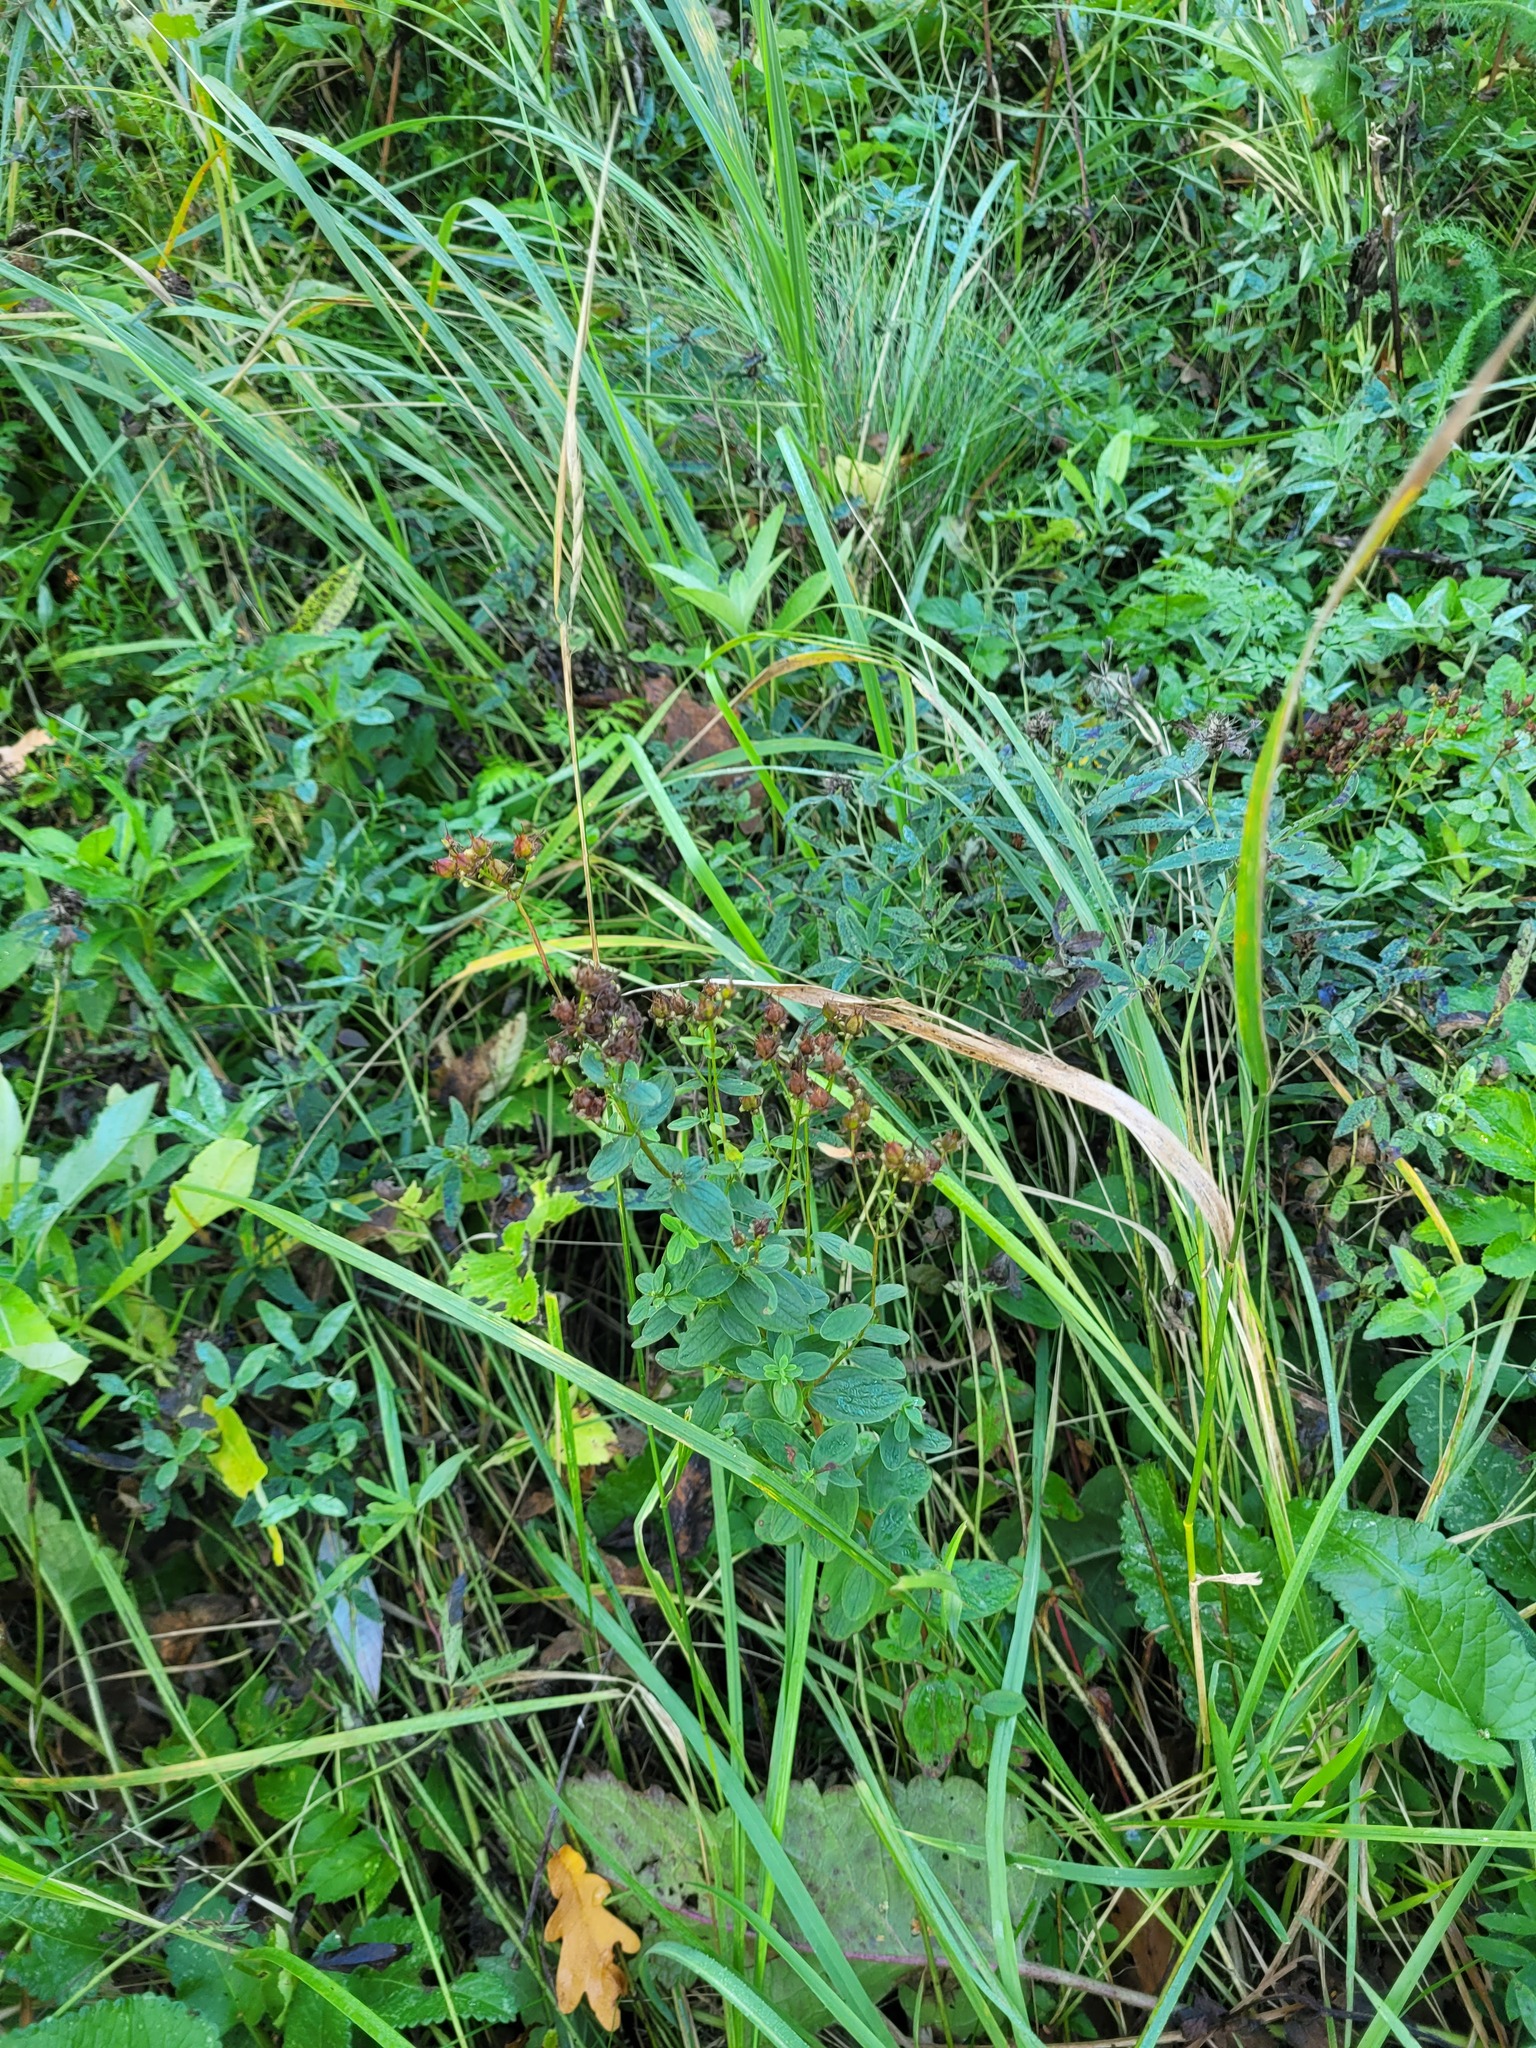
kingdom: Plantae
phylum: Tracheophyta
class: Magnoliopsida
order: Malpighiales
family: Hypericaceae
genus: Hypericum
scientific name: Hypericum maculatum
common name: Imperforate st. john's-wort
